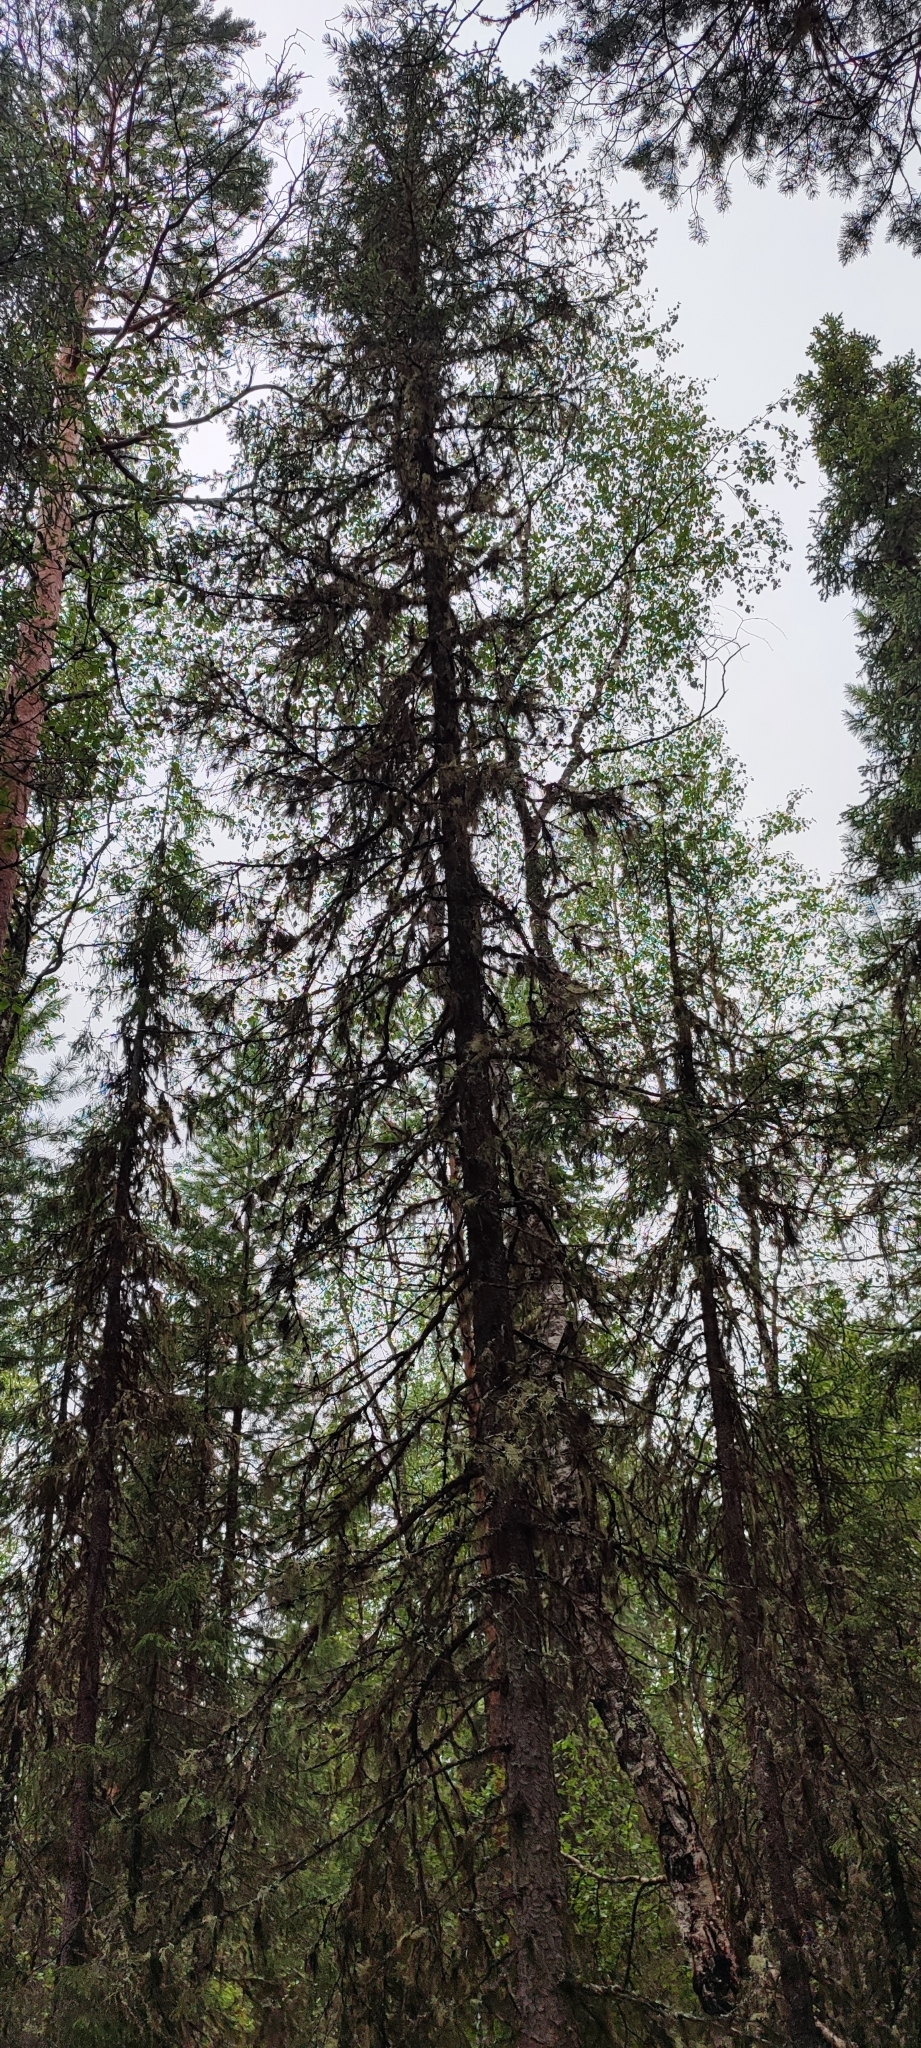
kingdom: Plantae
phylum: Tracheophyta
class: Pinopsida
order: Pinales
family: Pinaceae
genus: Picea
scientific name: Picea obovata
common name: Siberian spruce
